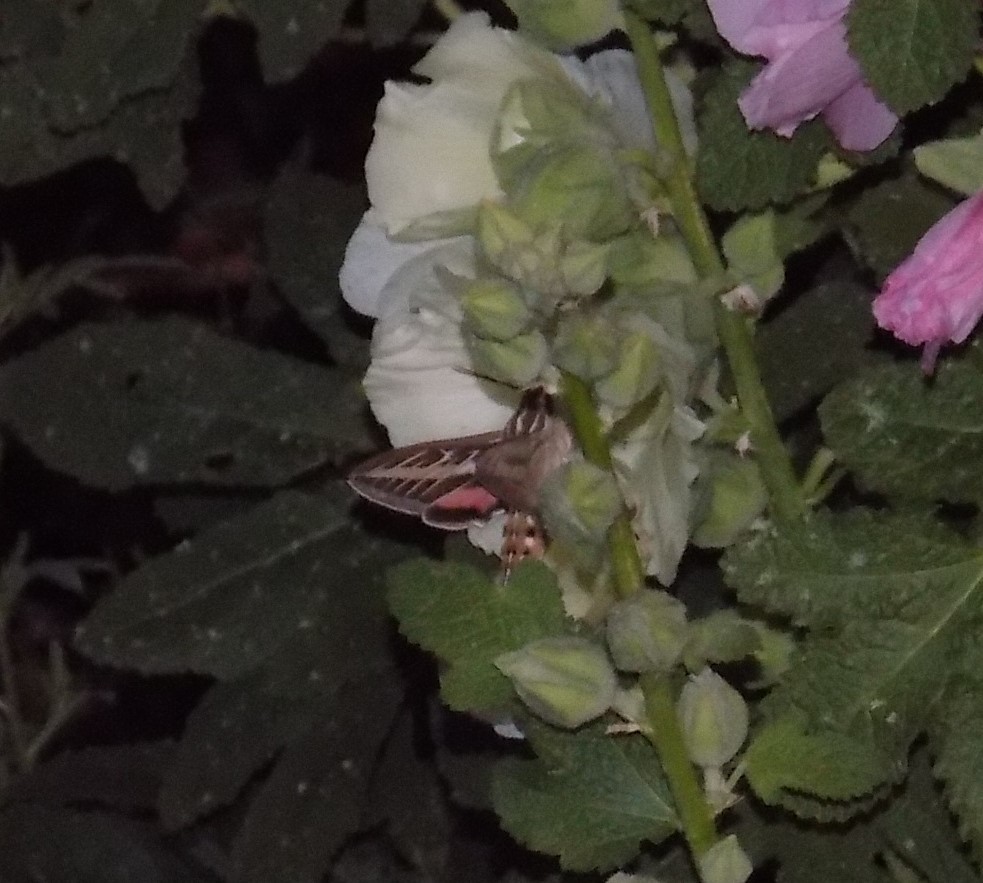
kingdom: Animalia
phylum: Arthropoda
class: Insecta
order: Lepidoptera
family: Sphingidae
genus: Hyles
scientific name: Hyles lineata
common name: White-lined sphinx
